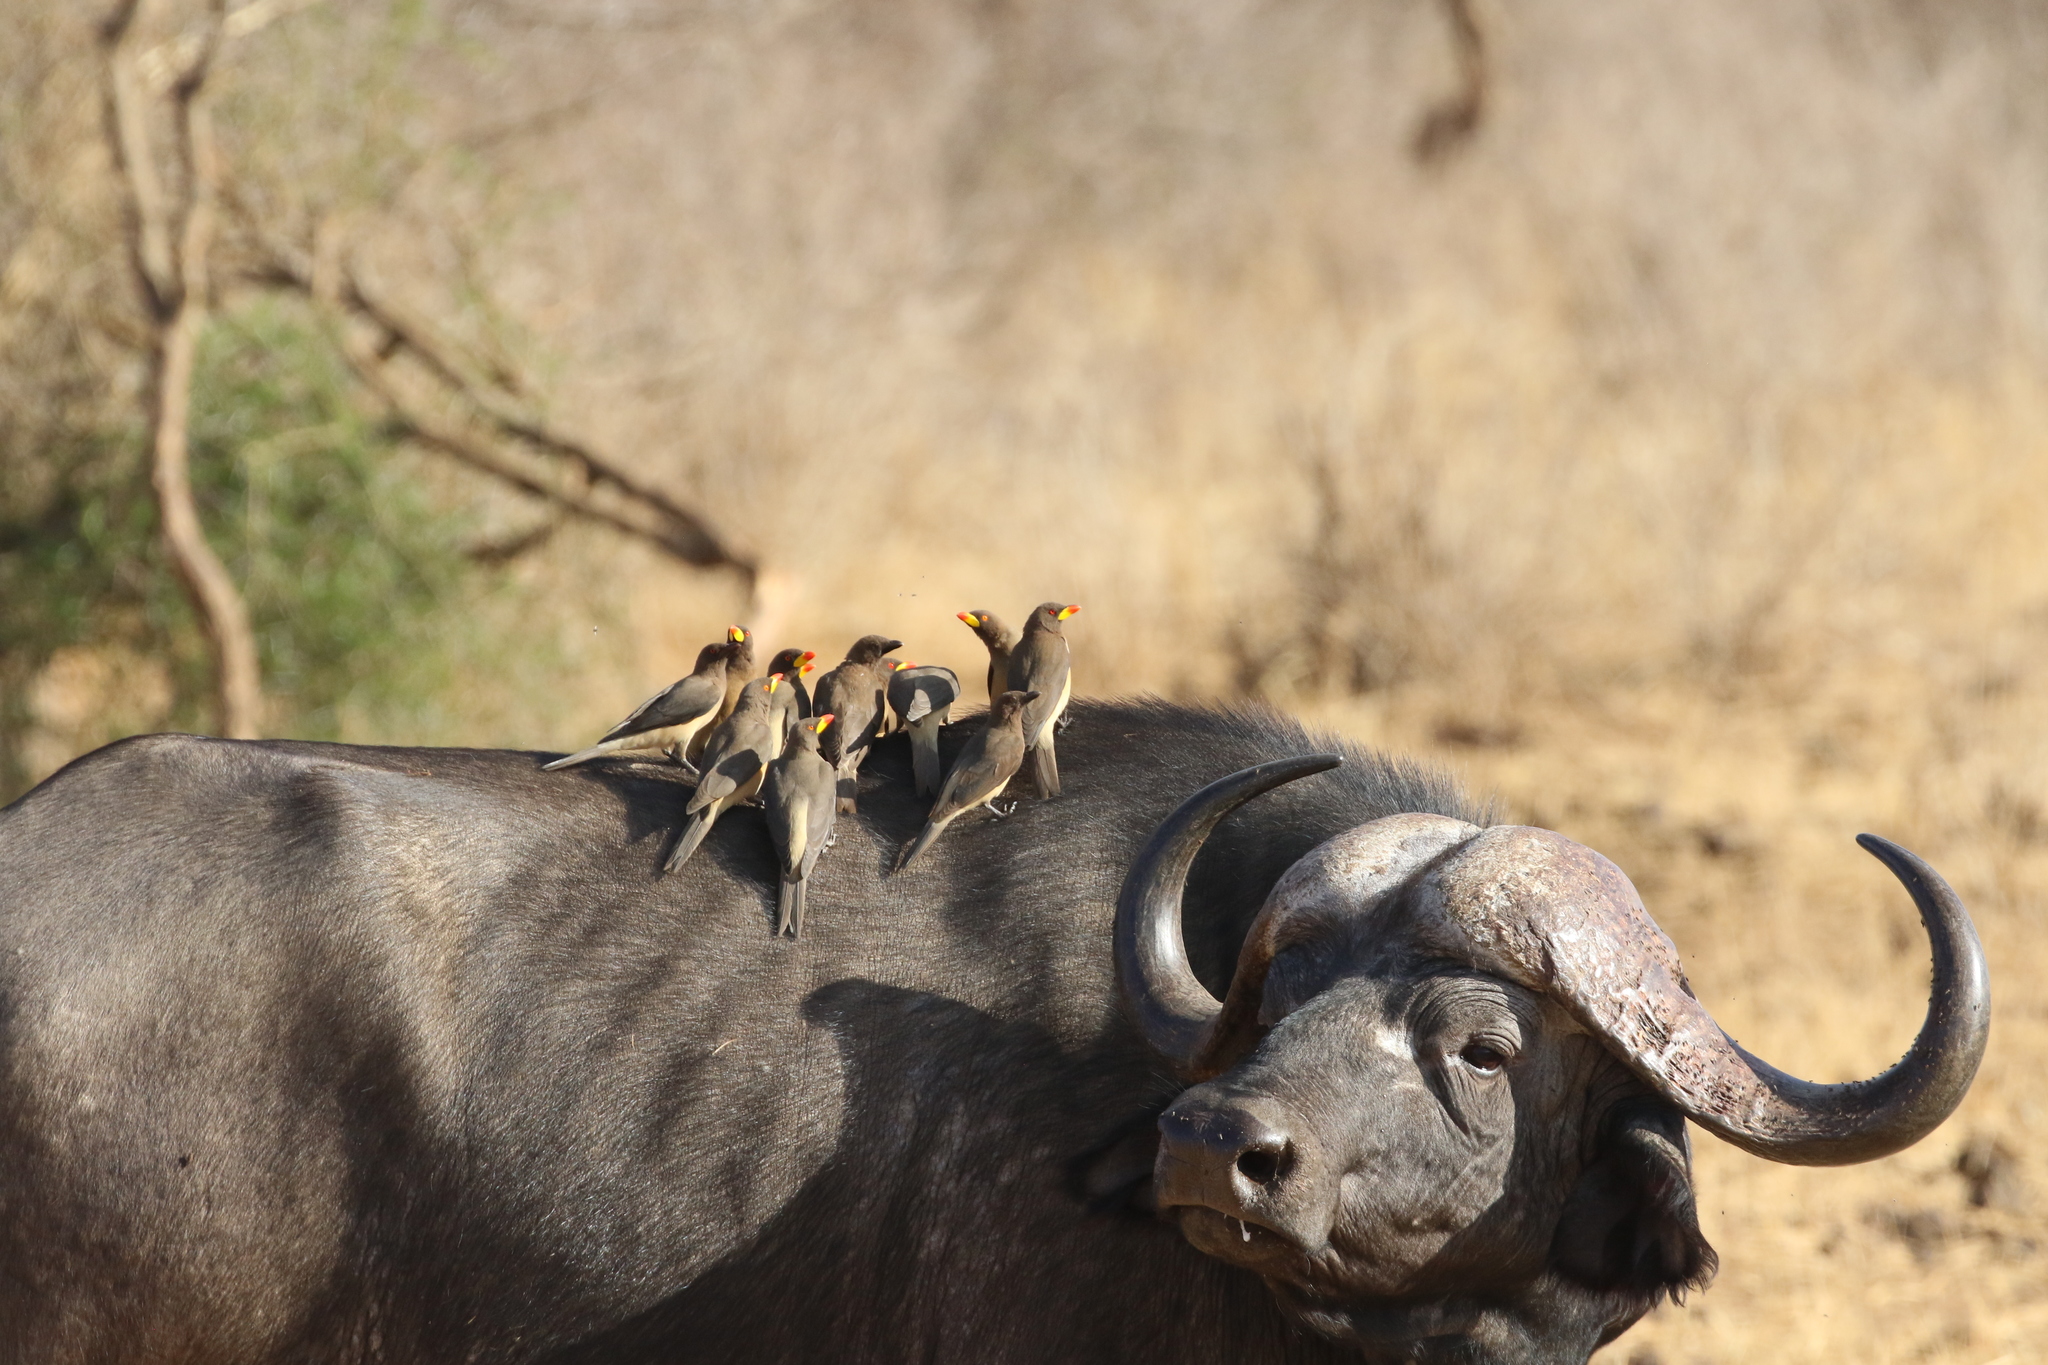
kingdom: Animalia
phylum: Chordata
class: Aves
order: Passeriformes
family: Buphagidae
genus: Buphagus
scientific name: Buphagus africanus
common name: Yellow-billed oxpecker
